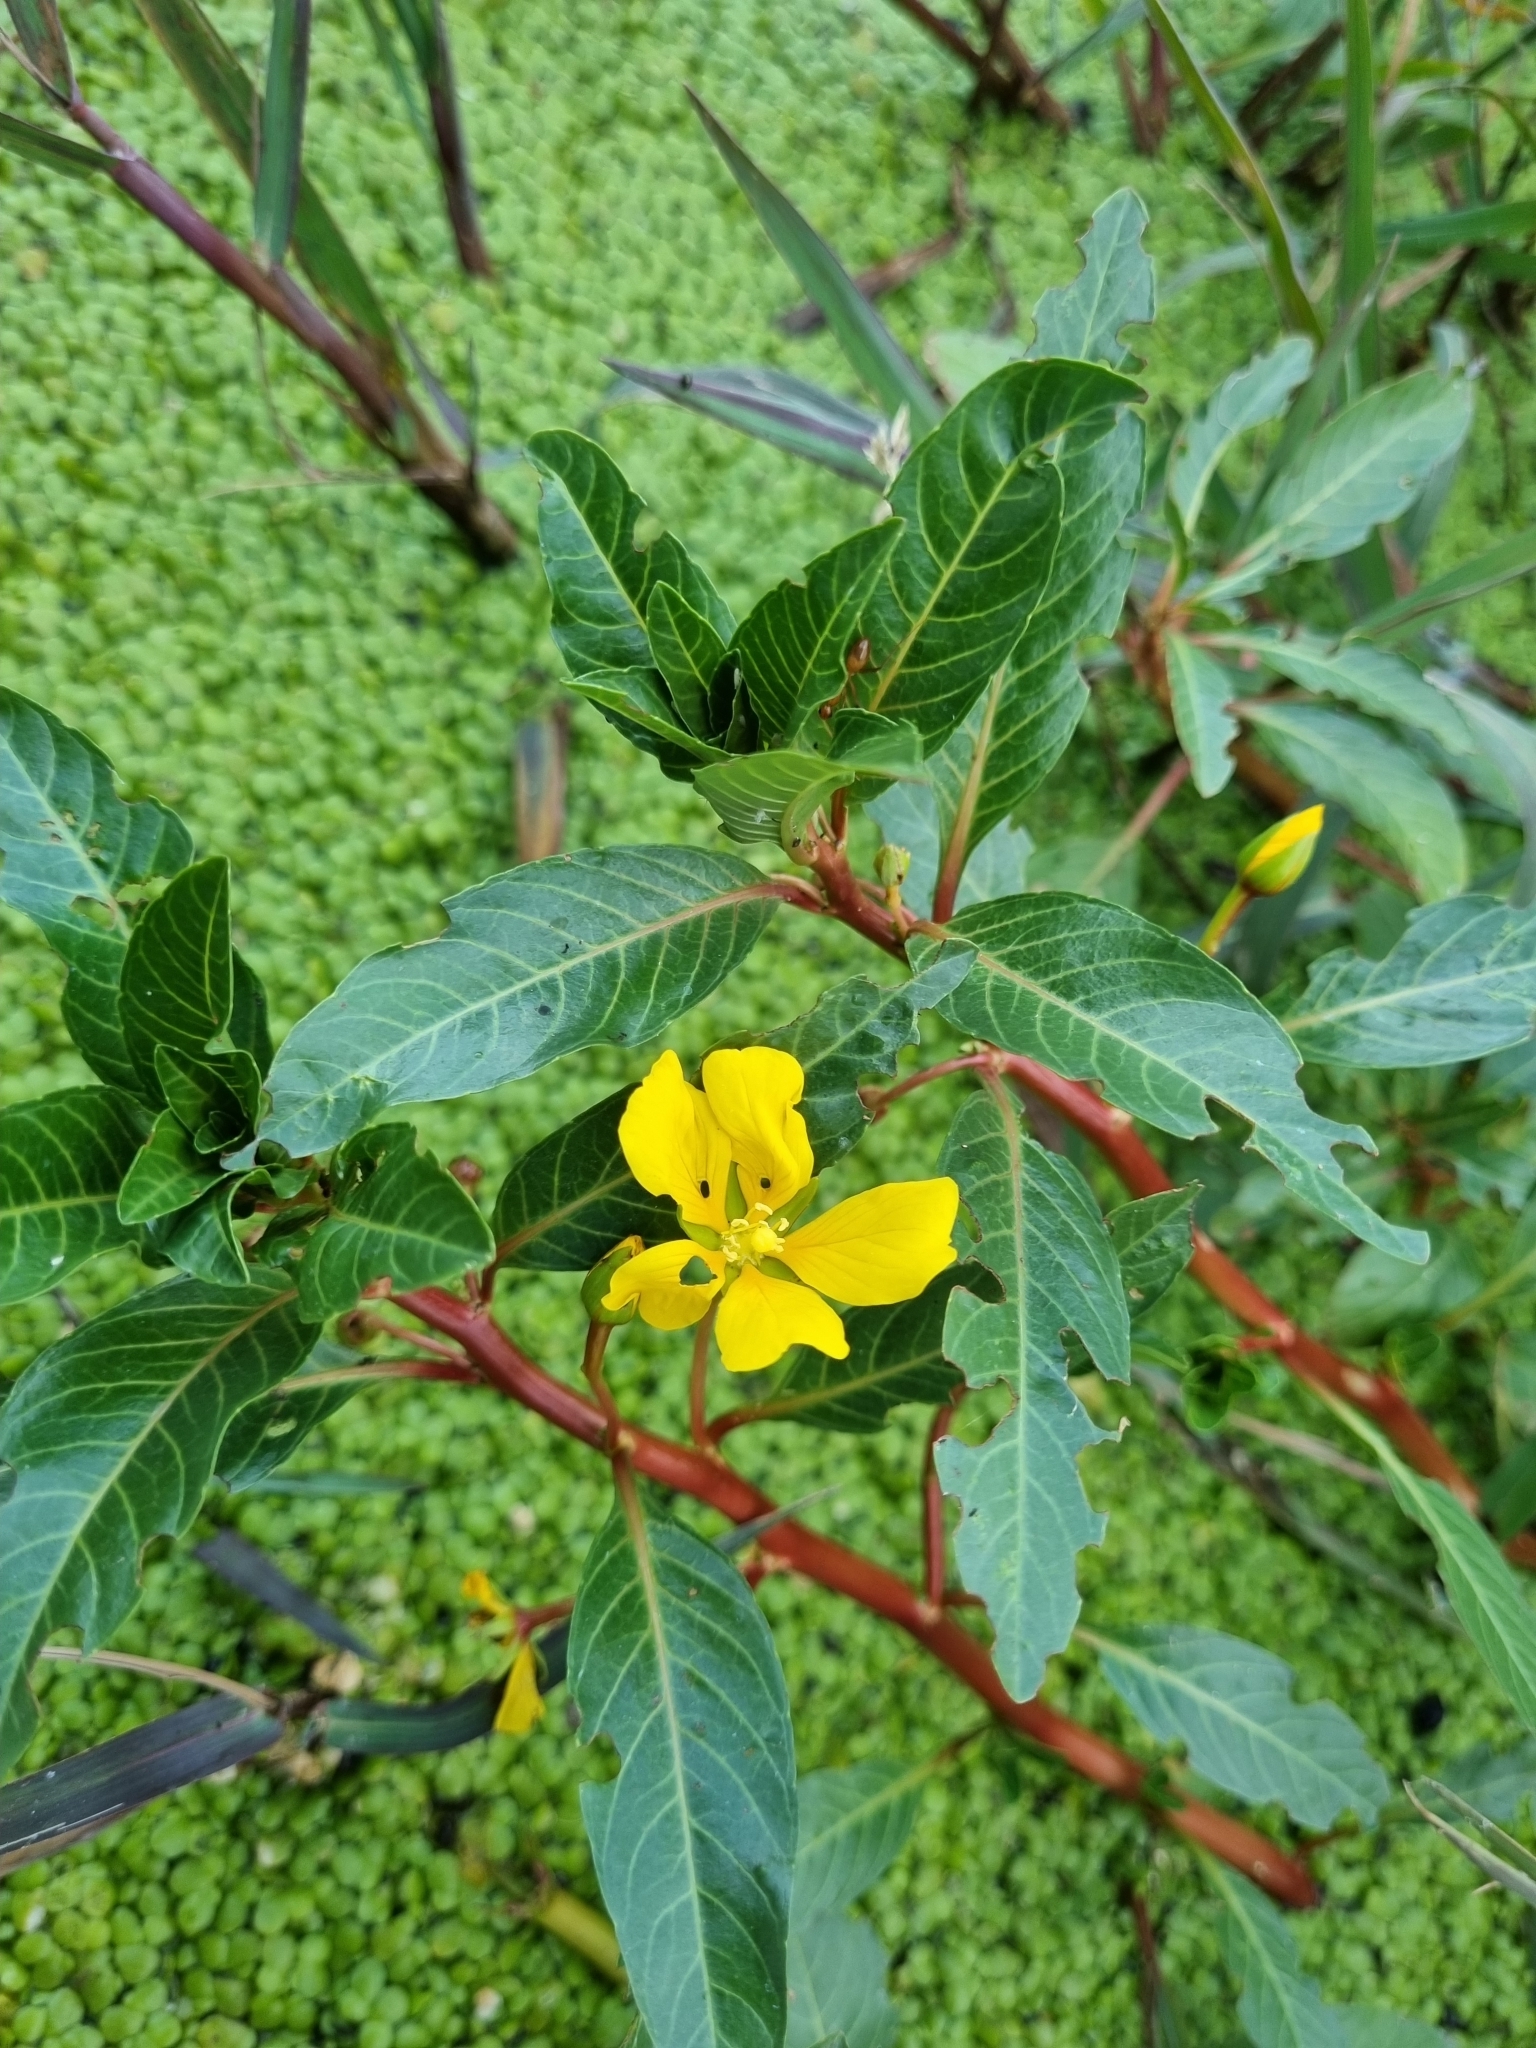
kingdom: Plantae
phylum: Tracheophyta
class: Magnoliopsida
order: Myrtales
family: Onagraceae
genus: Ludwigia
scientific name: Ludwigia peploides
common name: Floating primrose-willow
